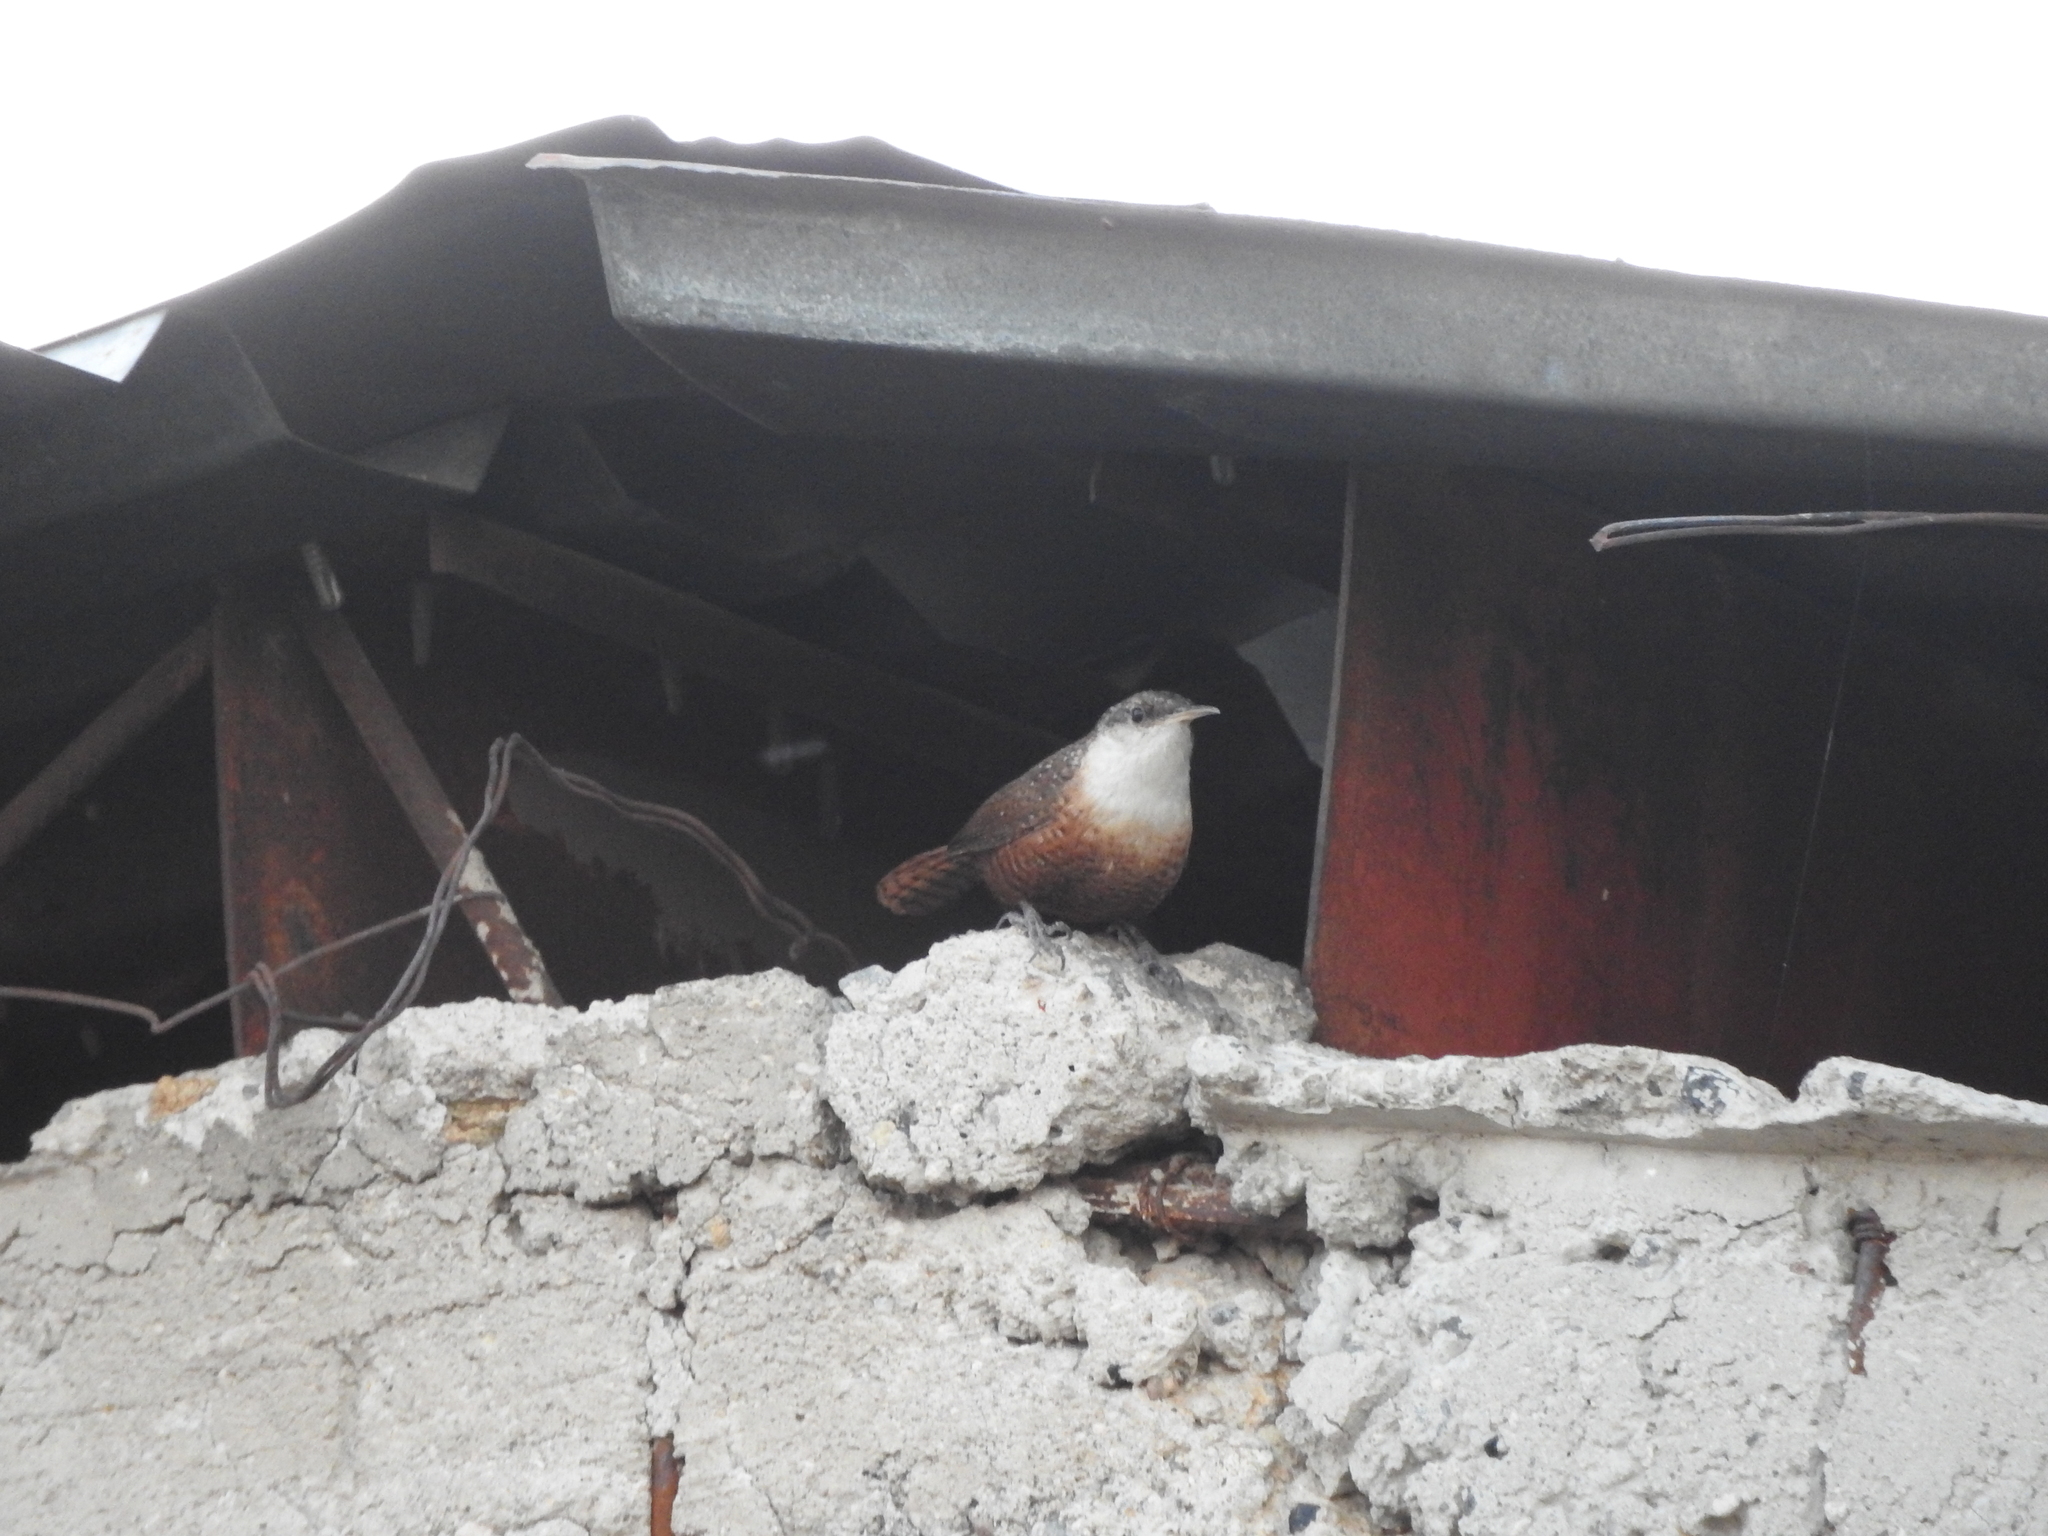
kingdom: Animalia
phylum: Chordata
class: Aves
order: Passeriformes
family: Troglodytidae
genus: Catherpes
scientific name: Catherpes mexicanus
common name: Canyon wren
